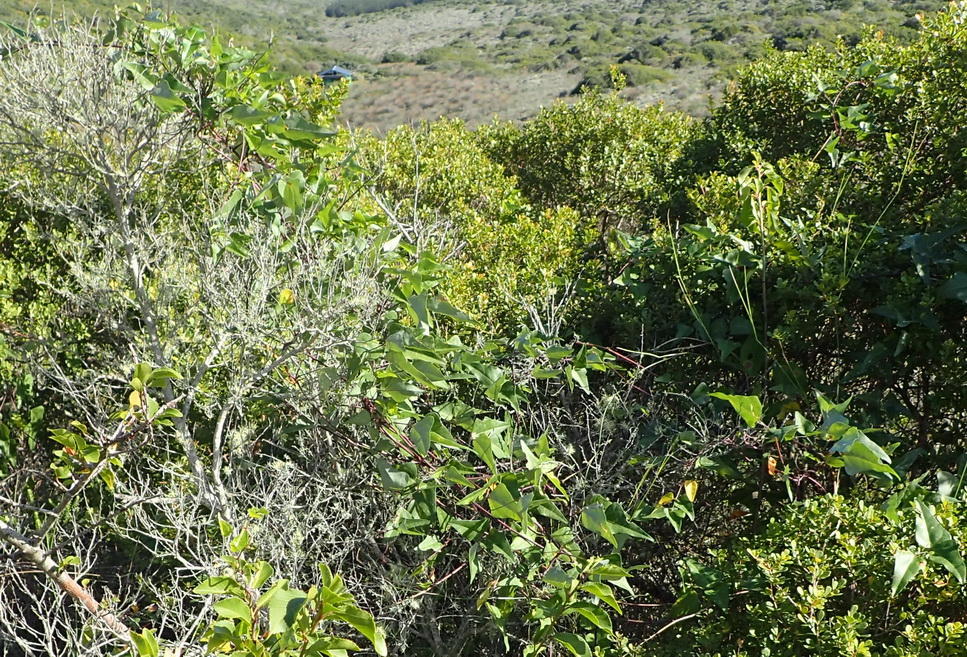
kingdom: Plantae
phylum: Tracheophyta
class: Magnoliopsida
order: Fabales
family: Fabaceae
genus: Dipogon
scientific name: Dipogon lignosus
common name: Okie bean
